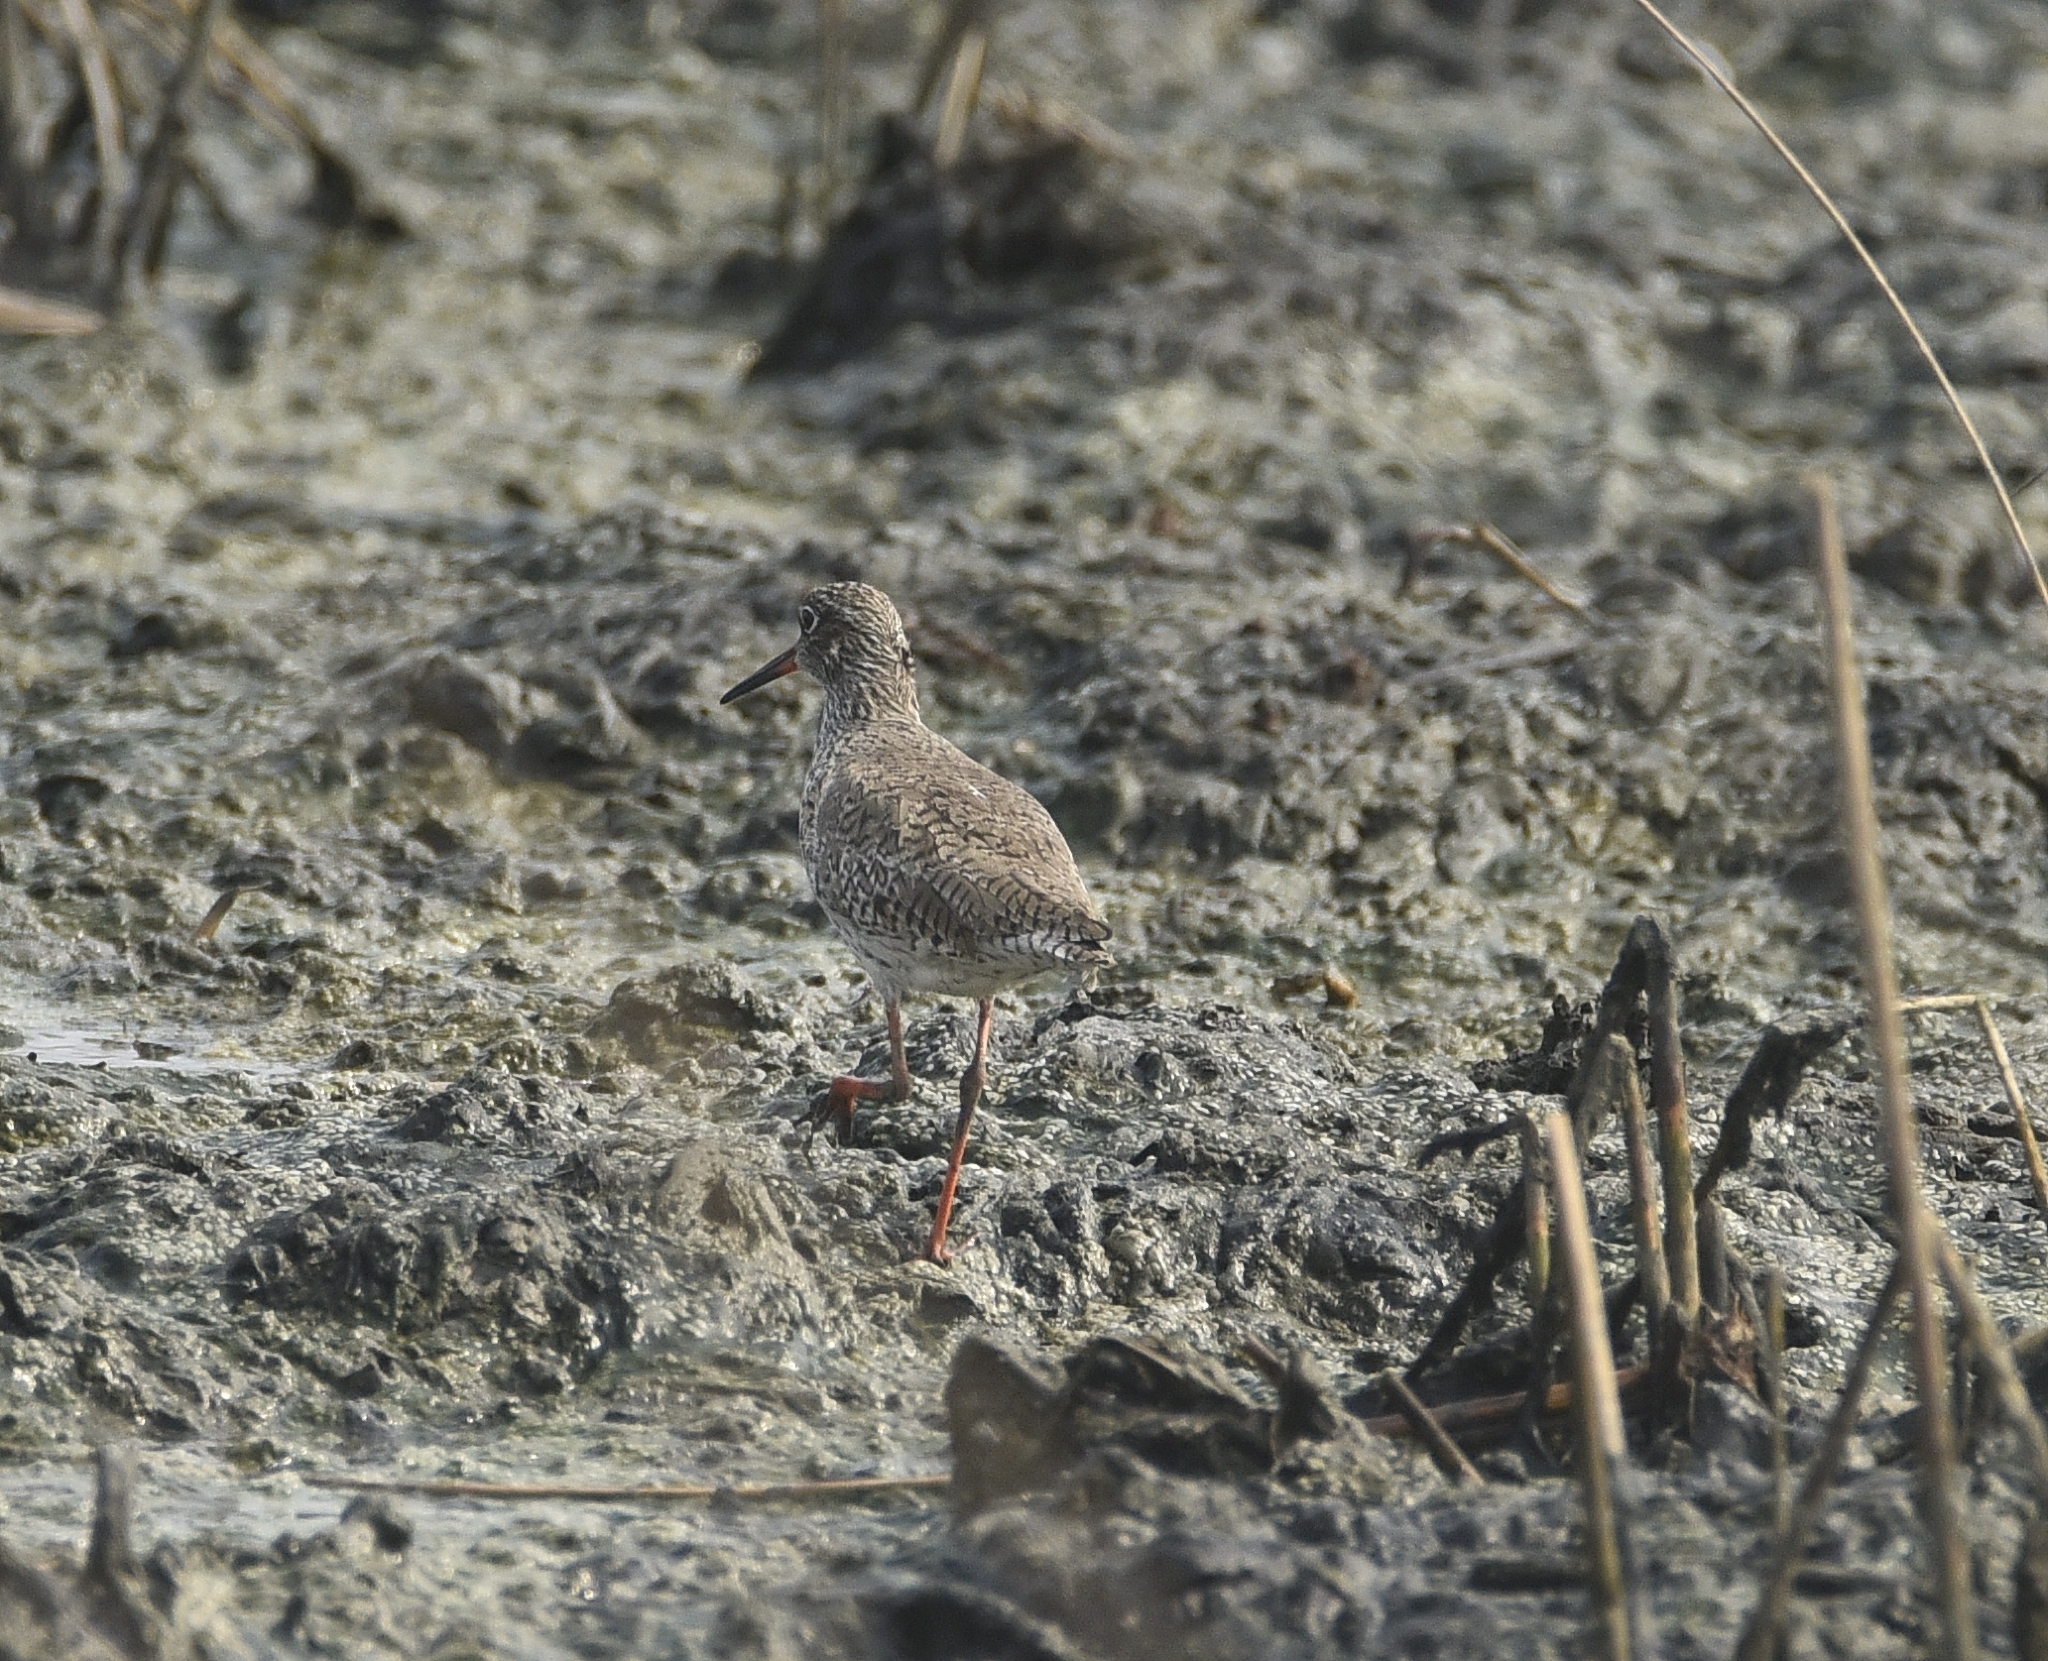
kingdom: Animalia
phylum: Chordata
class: Aves
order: Charadriiformes
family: Scolopacidae
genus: Tringa
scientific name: Tringa totanus
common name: Common redshank
